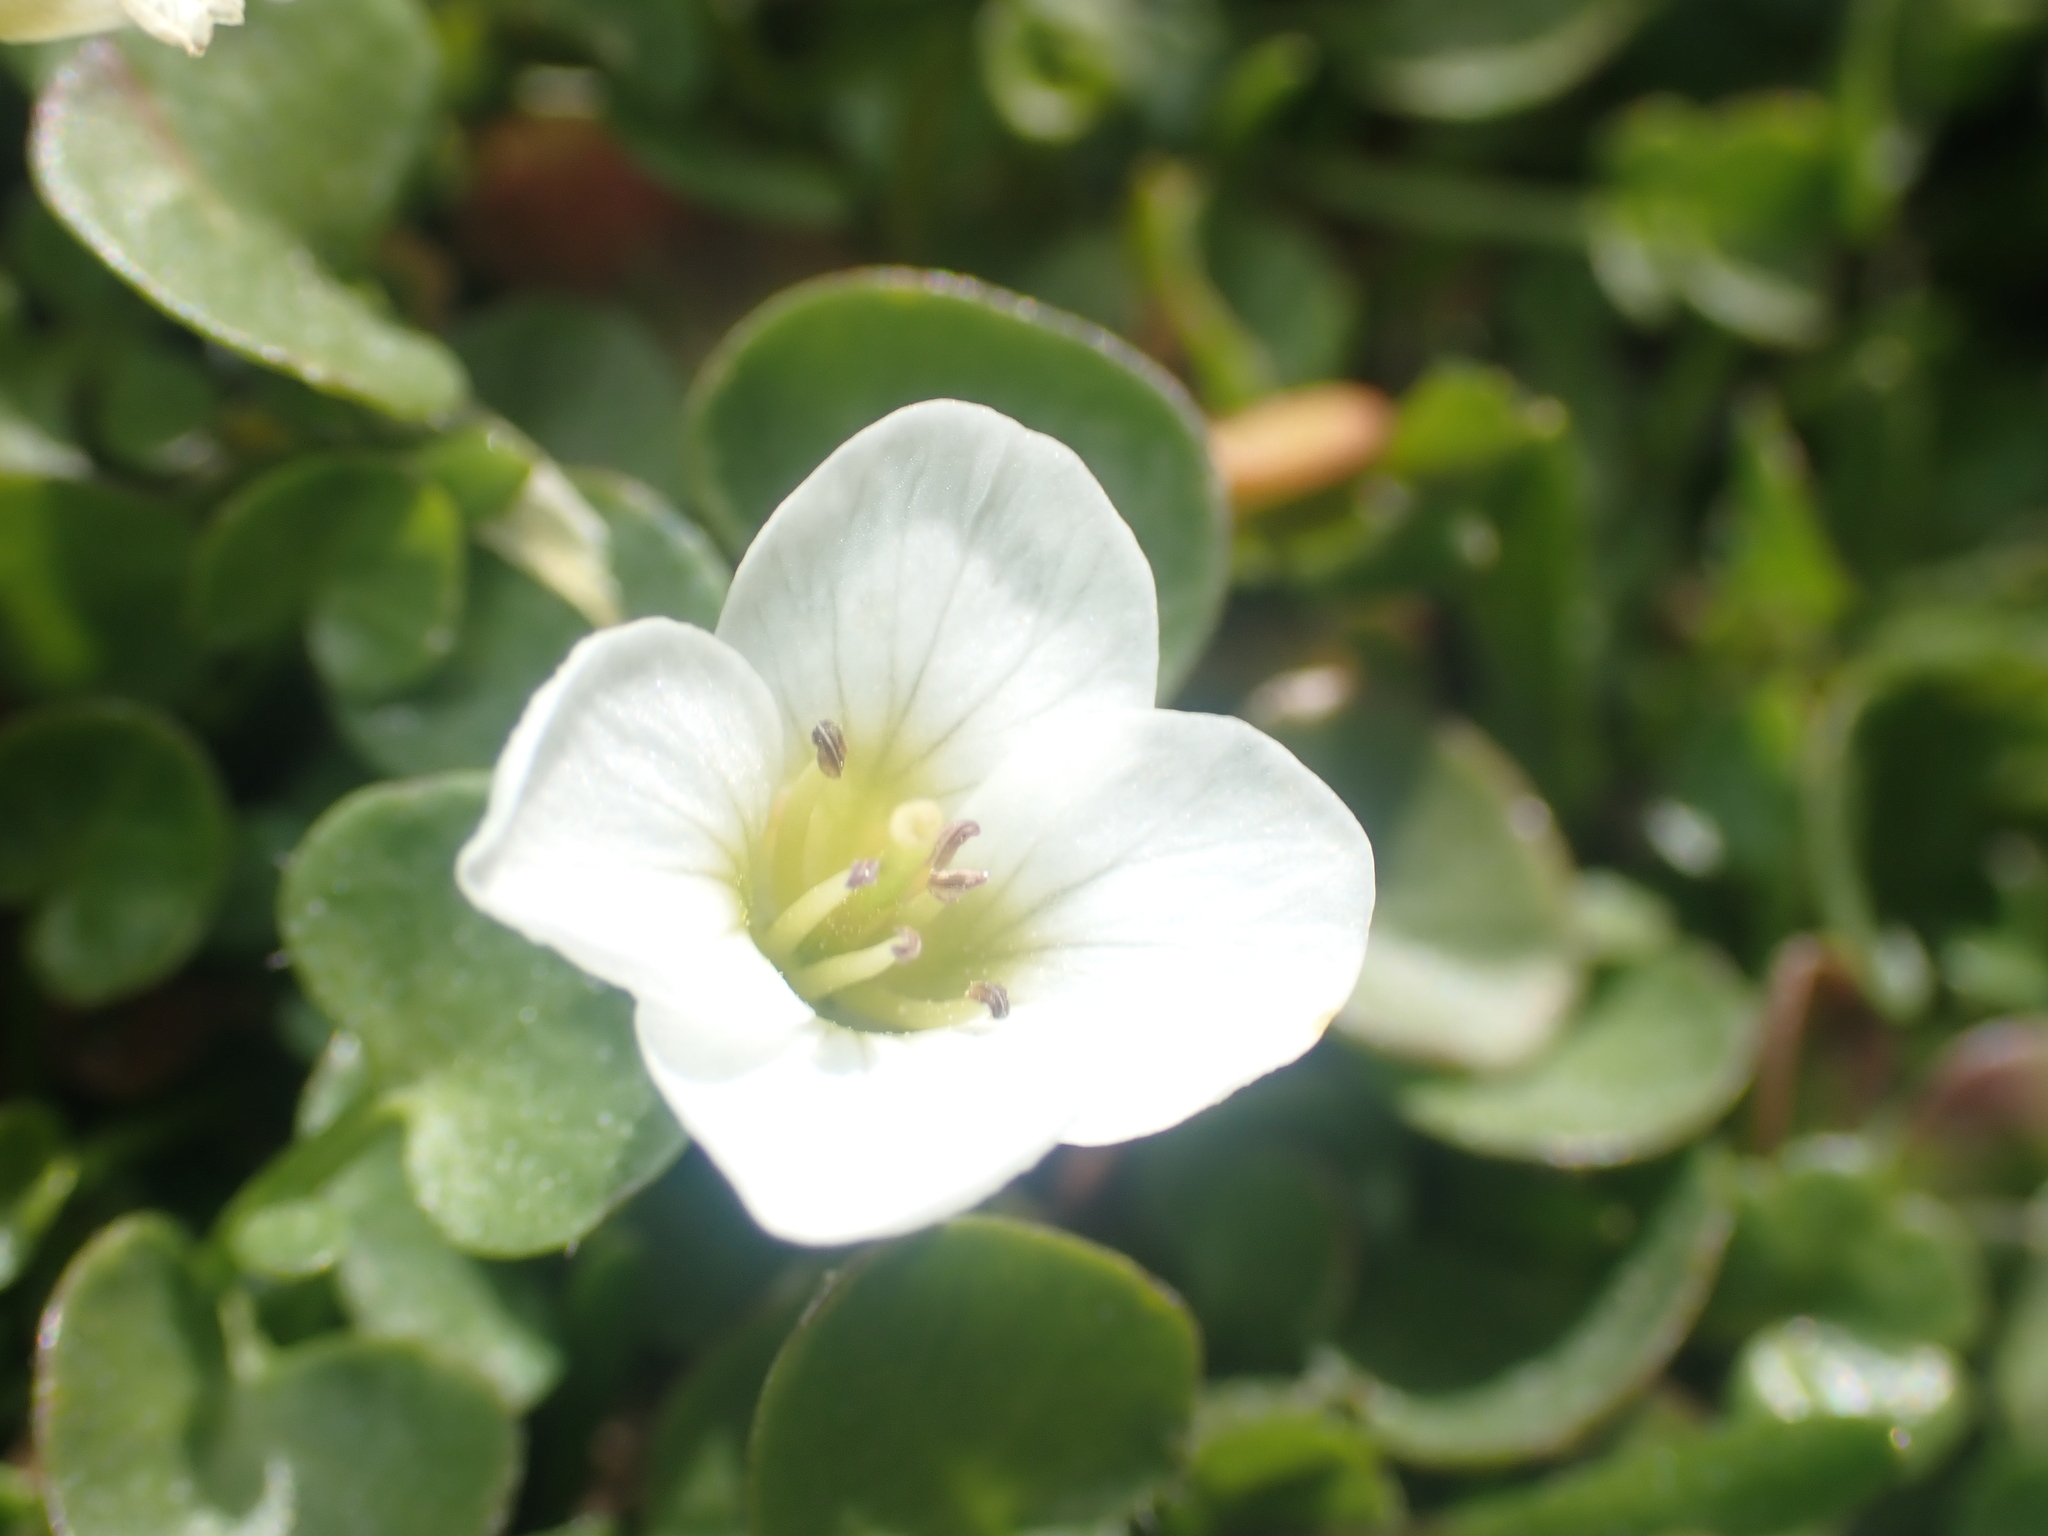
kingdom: Plantae
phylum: Tracheophyta
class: Magnoliopsida
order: Brassicales
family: Brassicaceae
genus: Cardamine
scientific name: Cardamine reptans
